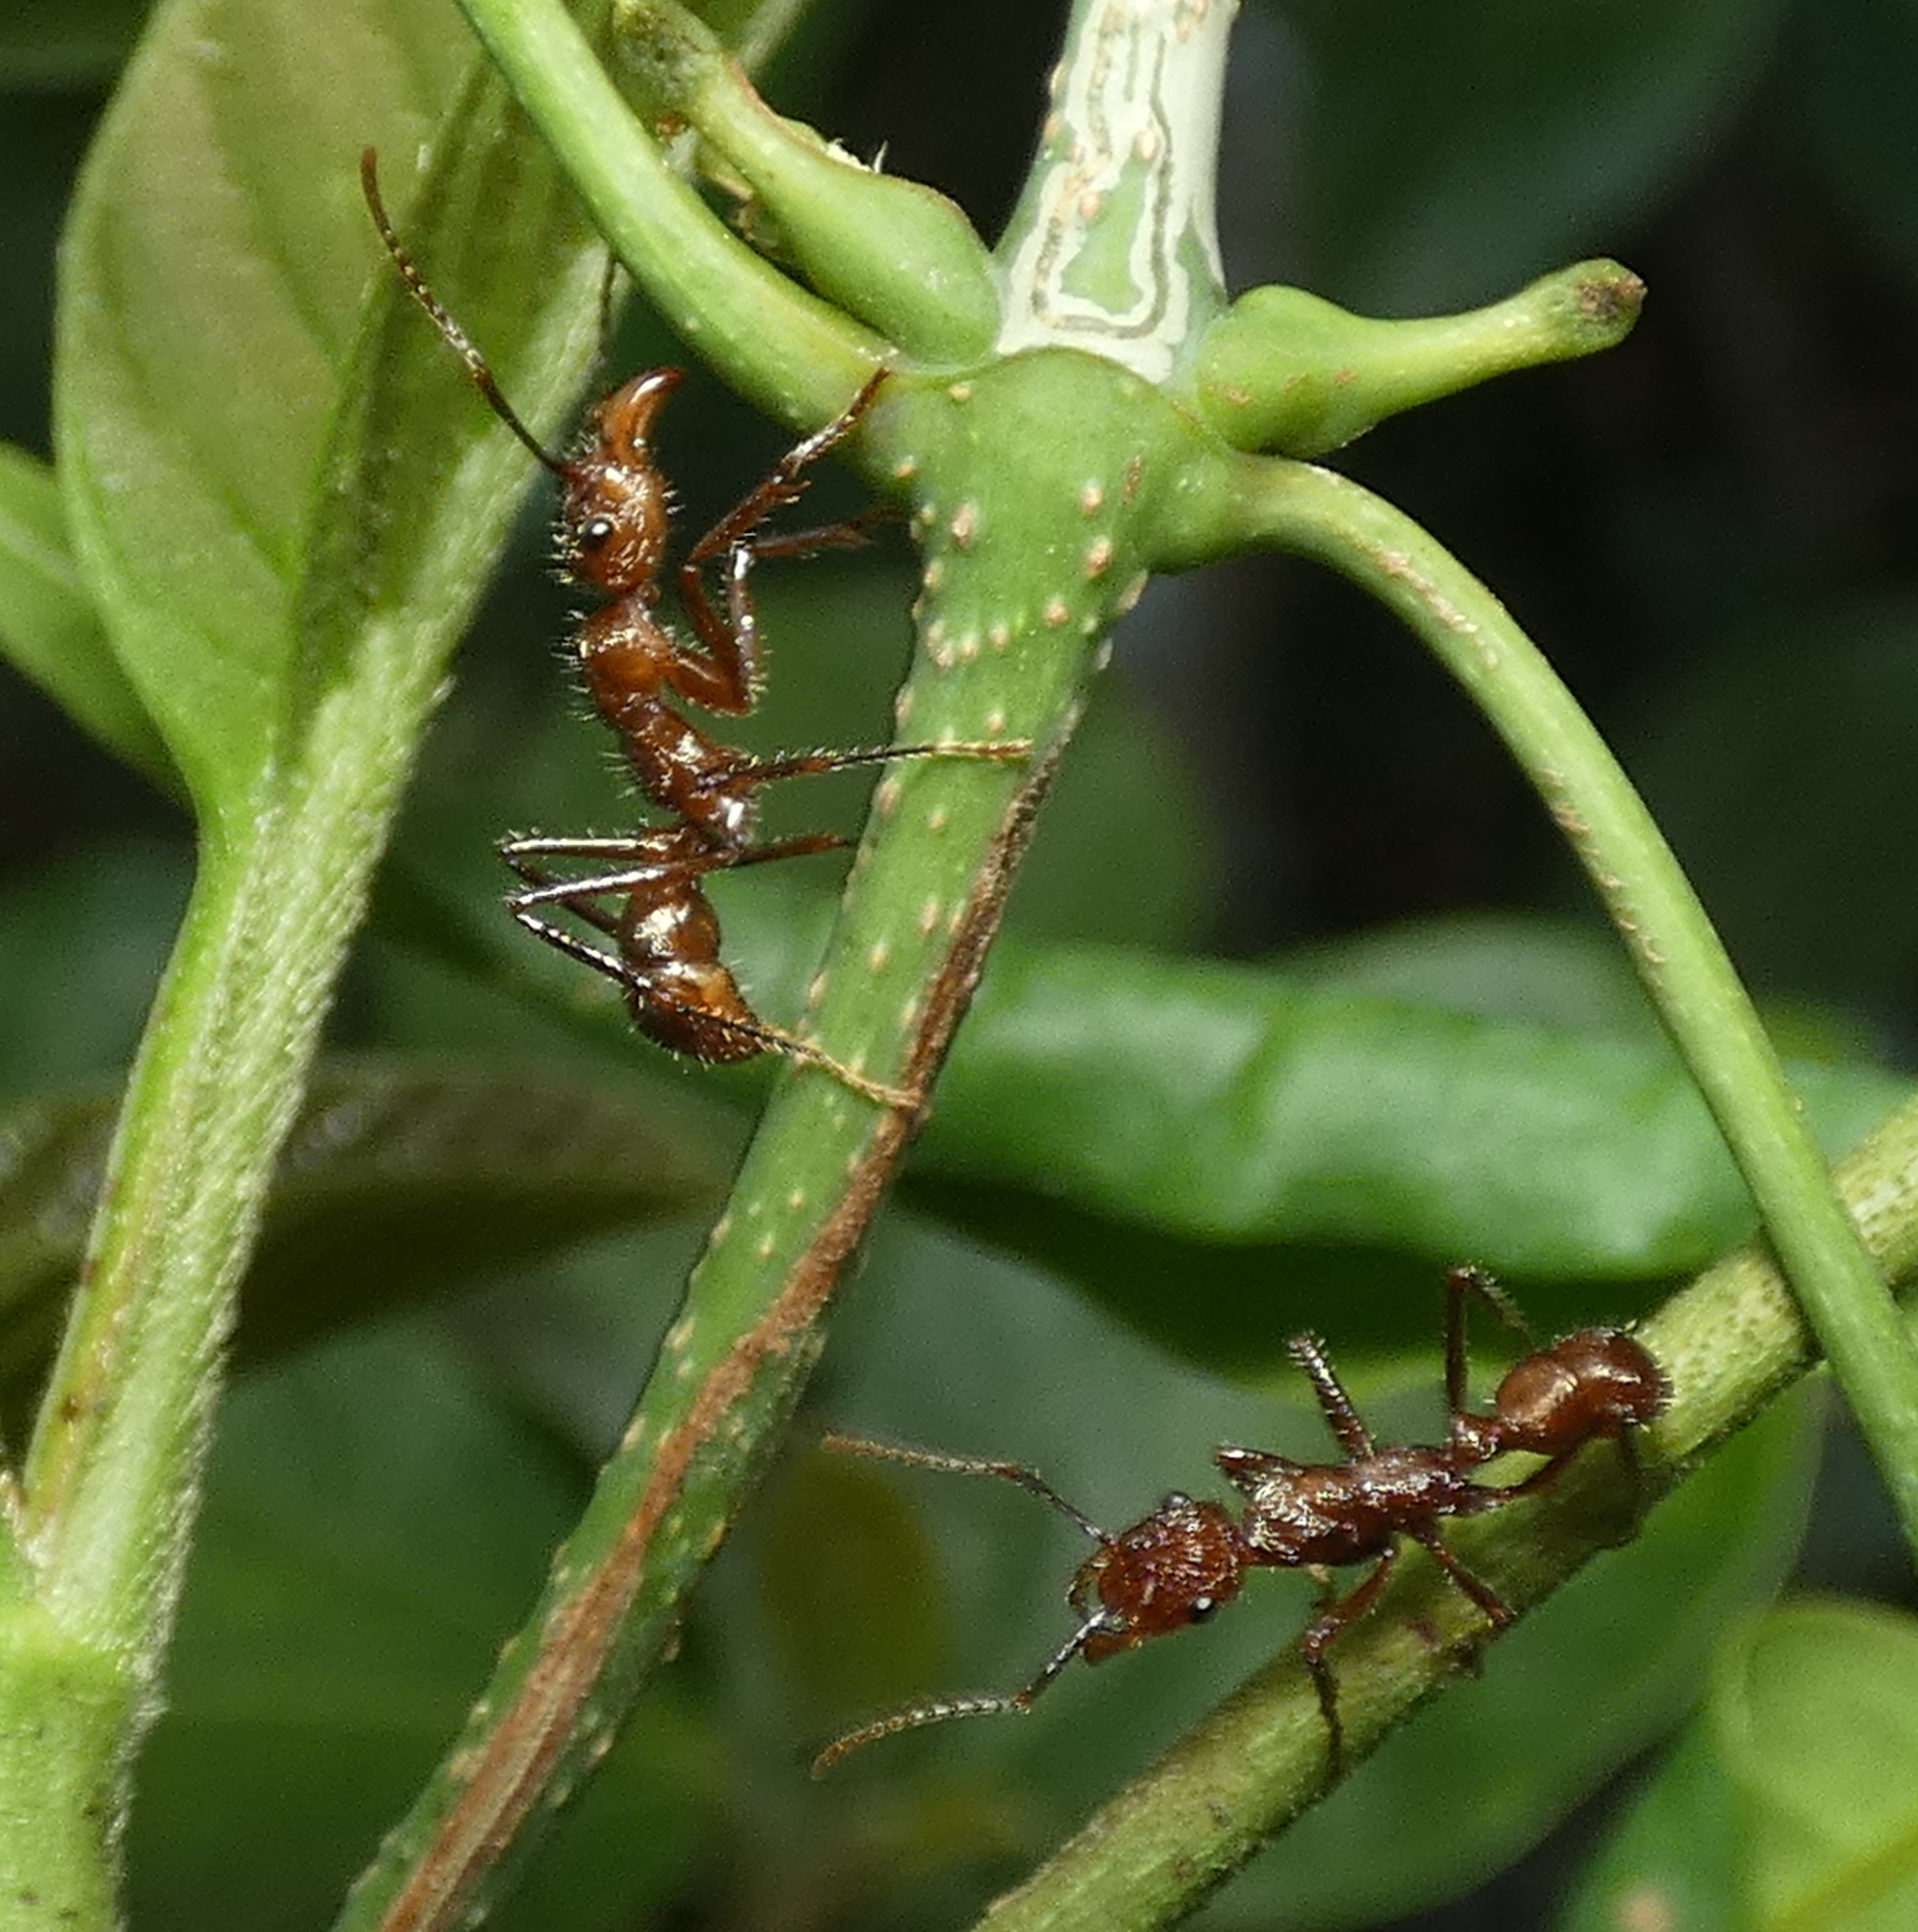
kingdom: Animalia
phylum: Arthropoda
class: Insecta
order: Hymenoptera
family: Formicidae
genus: Ectatomma
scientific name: Ectatomma tuberculatum
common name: Ant
